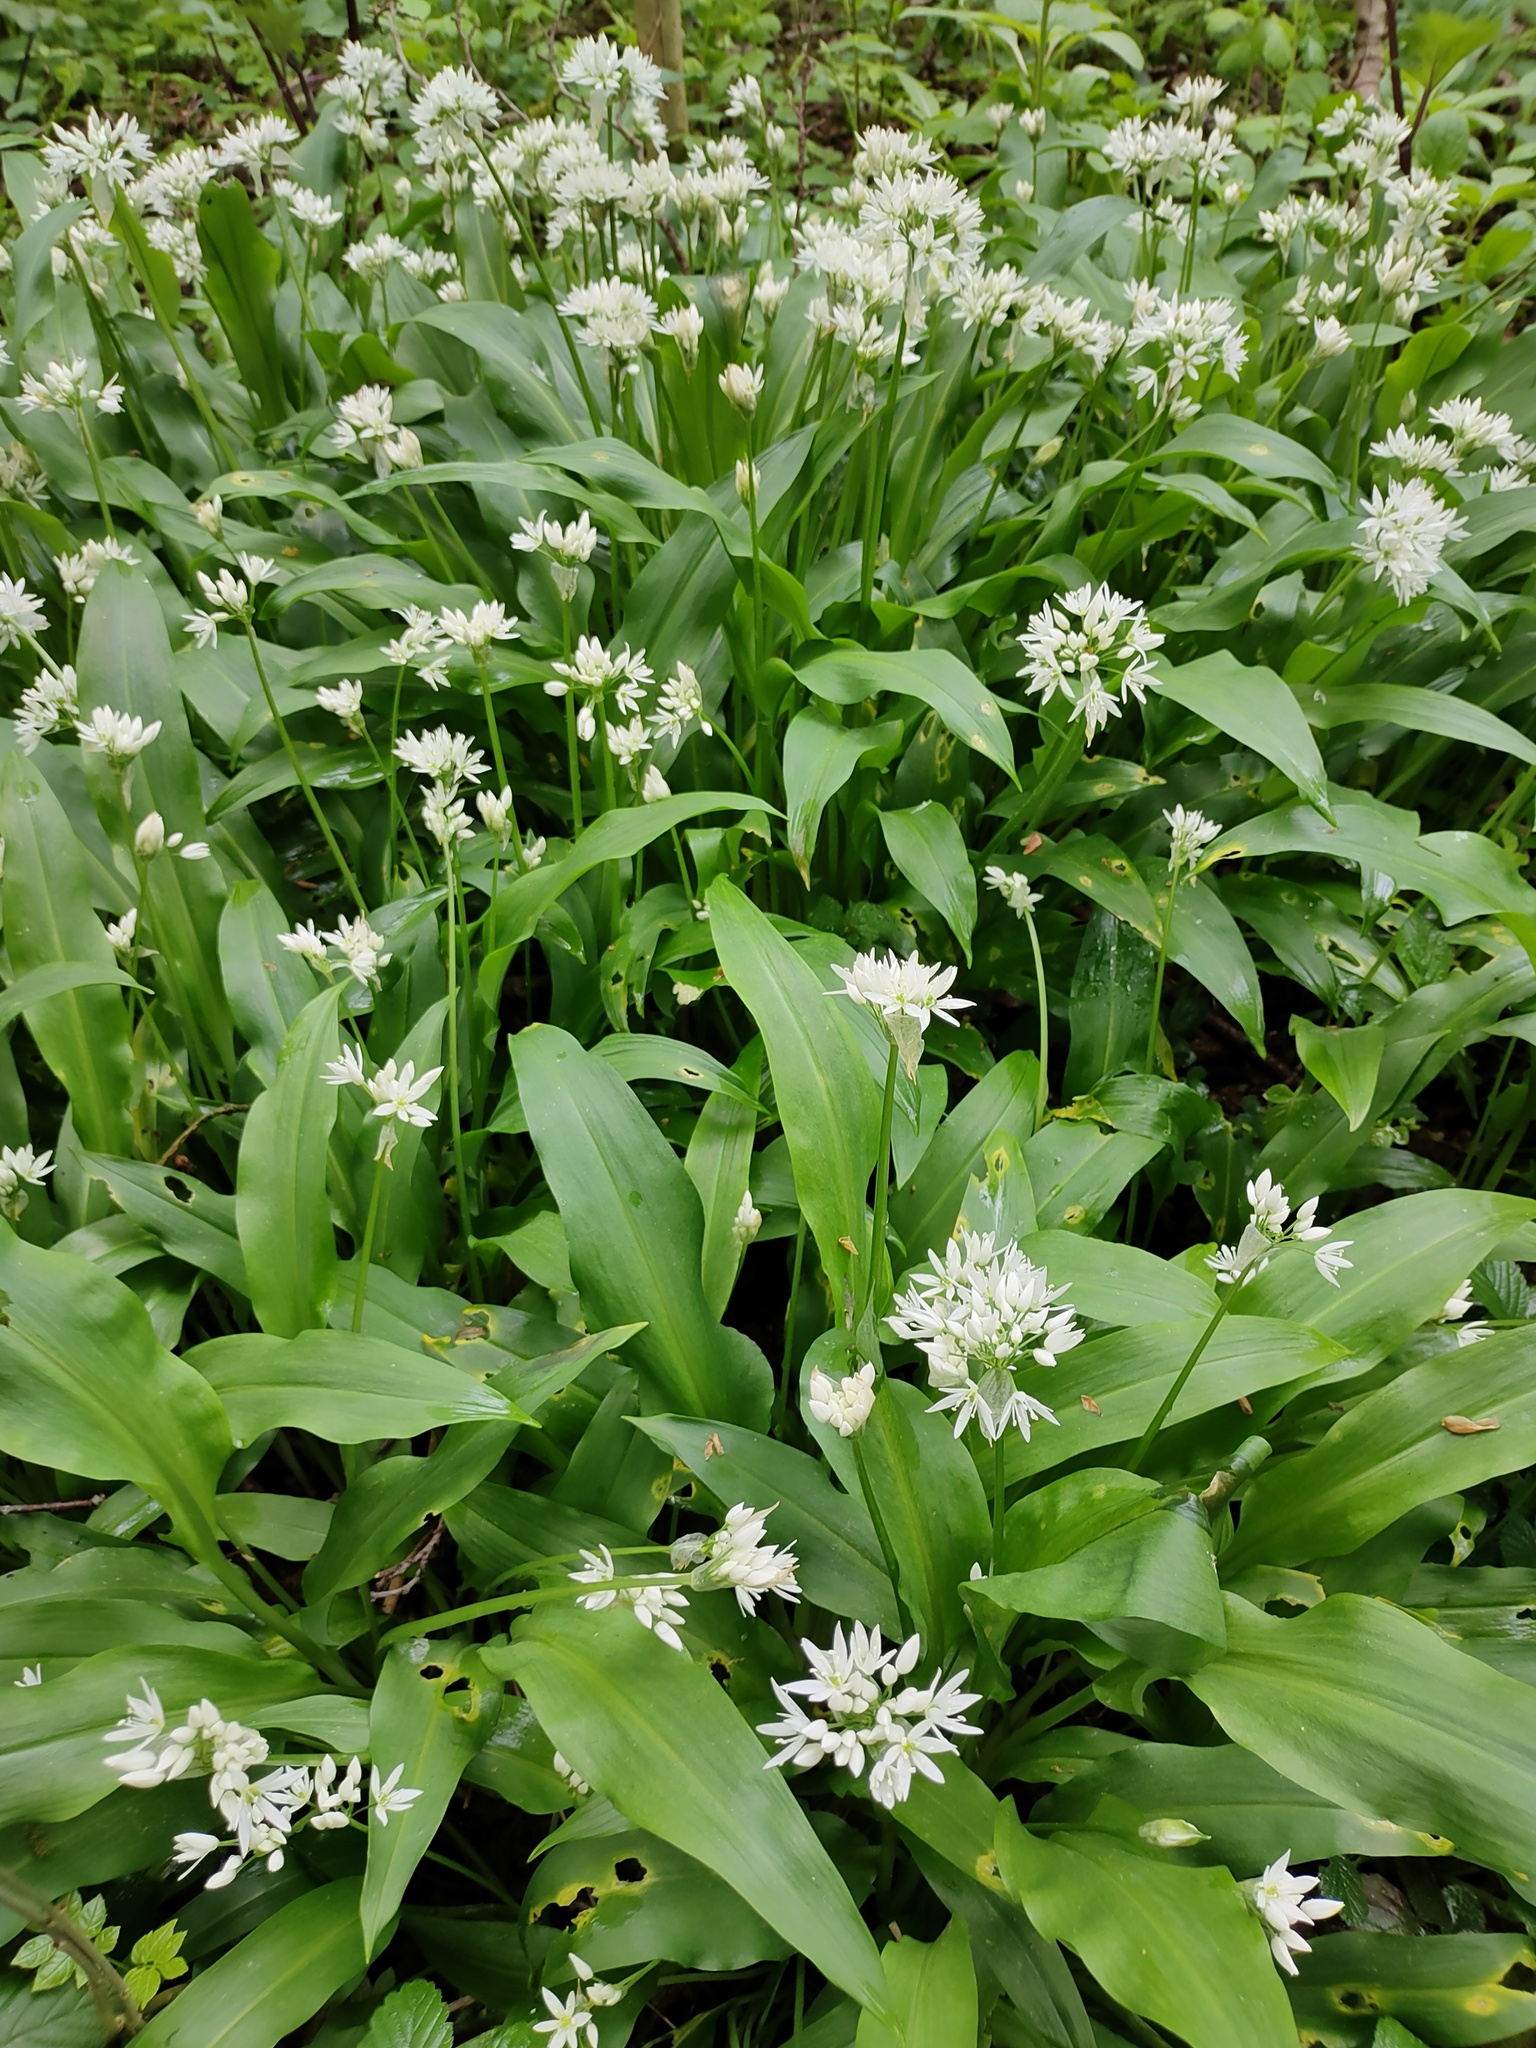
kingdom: Plantae
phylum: Tracheophyta
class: Liliopsida
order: Asparagales
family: Amaryllidaceae
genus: Allium
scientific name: Allium ursinum
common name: Ramsons
